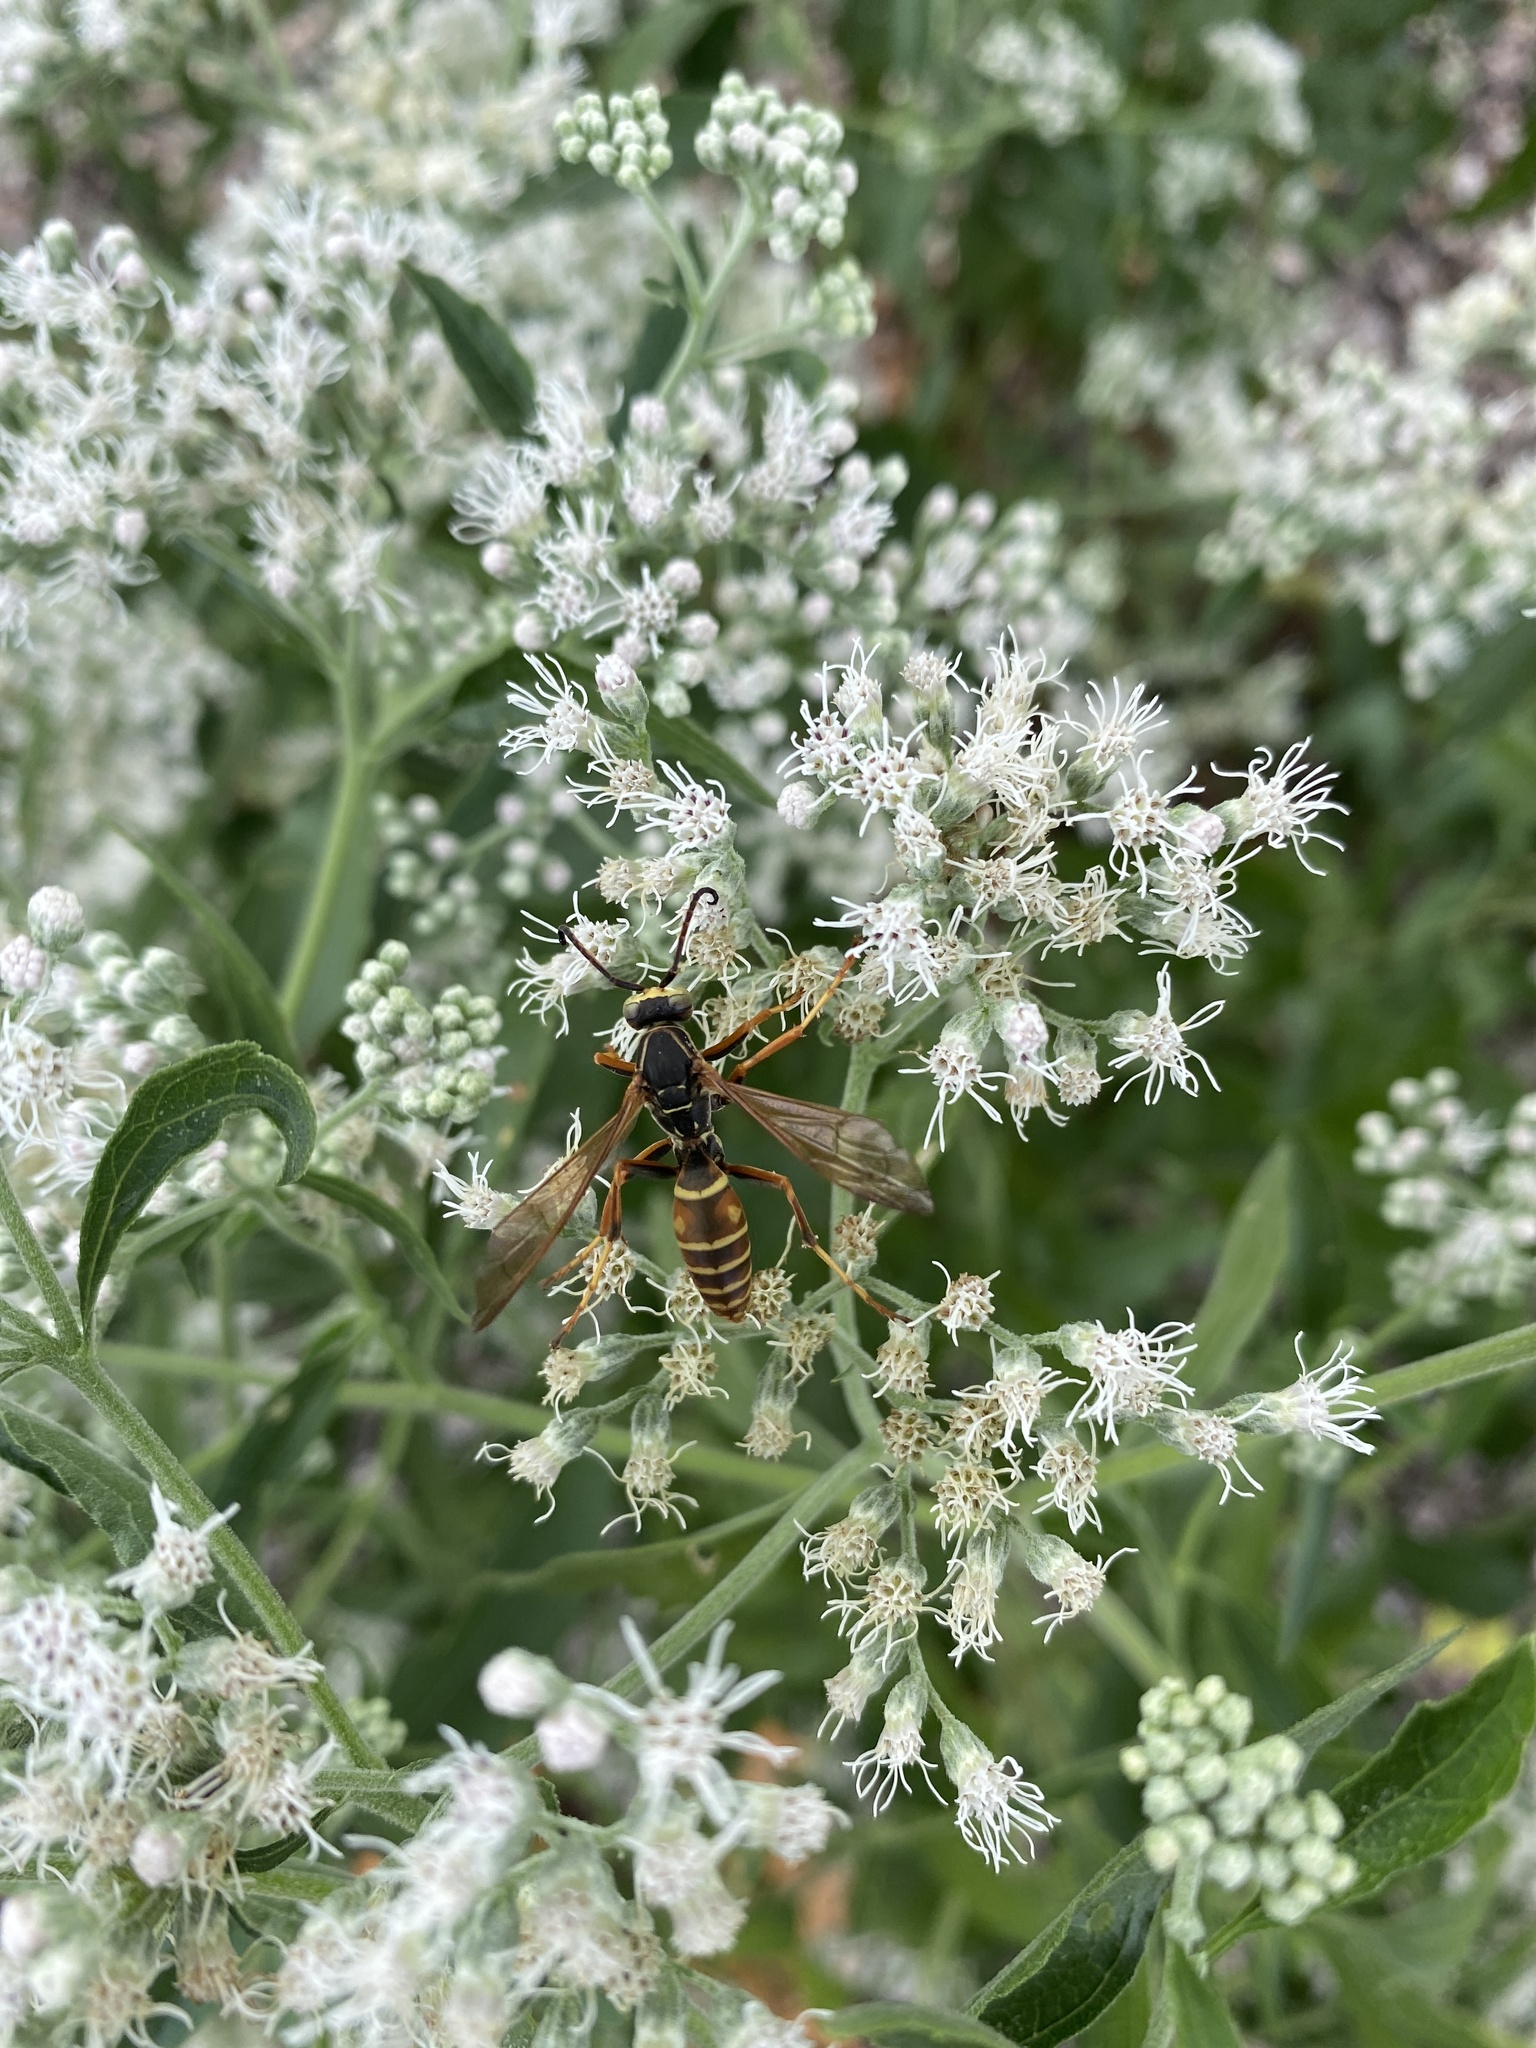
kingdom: Animalia
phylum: Arthropoda
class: Insecta
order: Hymenoptera
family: Eumenidae
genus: Polistes
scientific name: Polistes fuscatus
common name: Dark paper wasp
